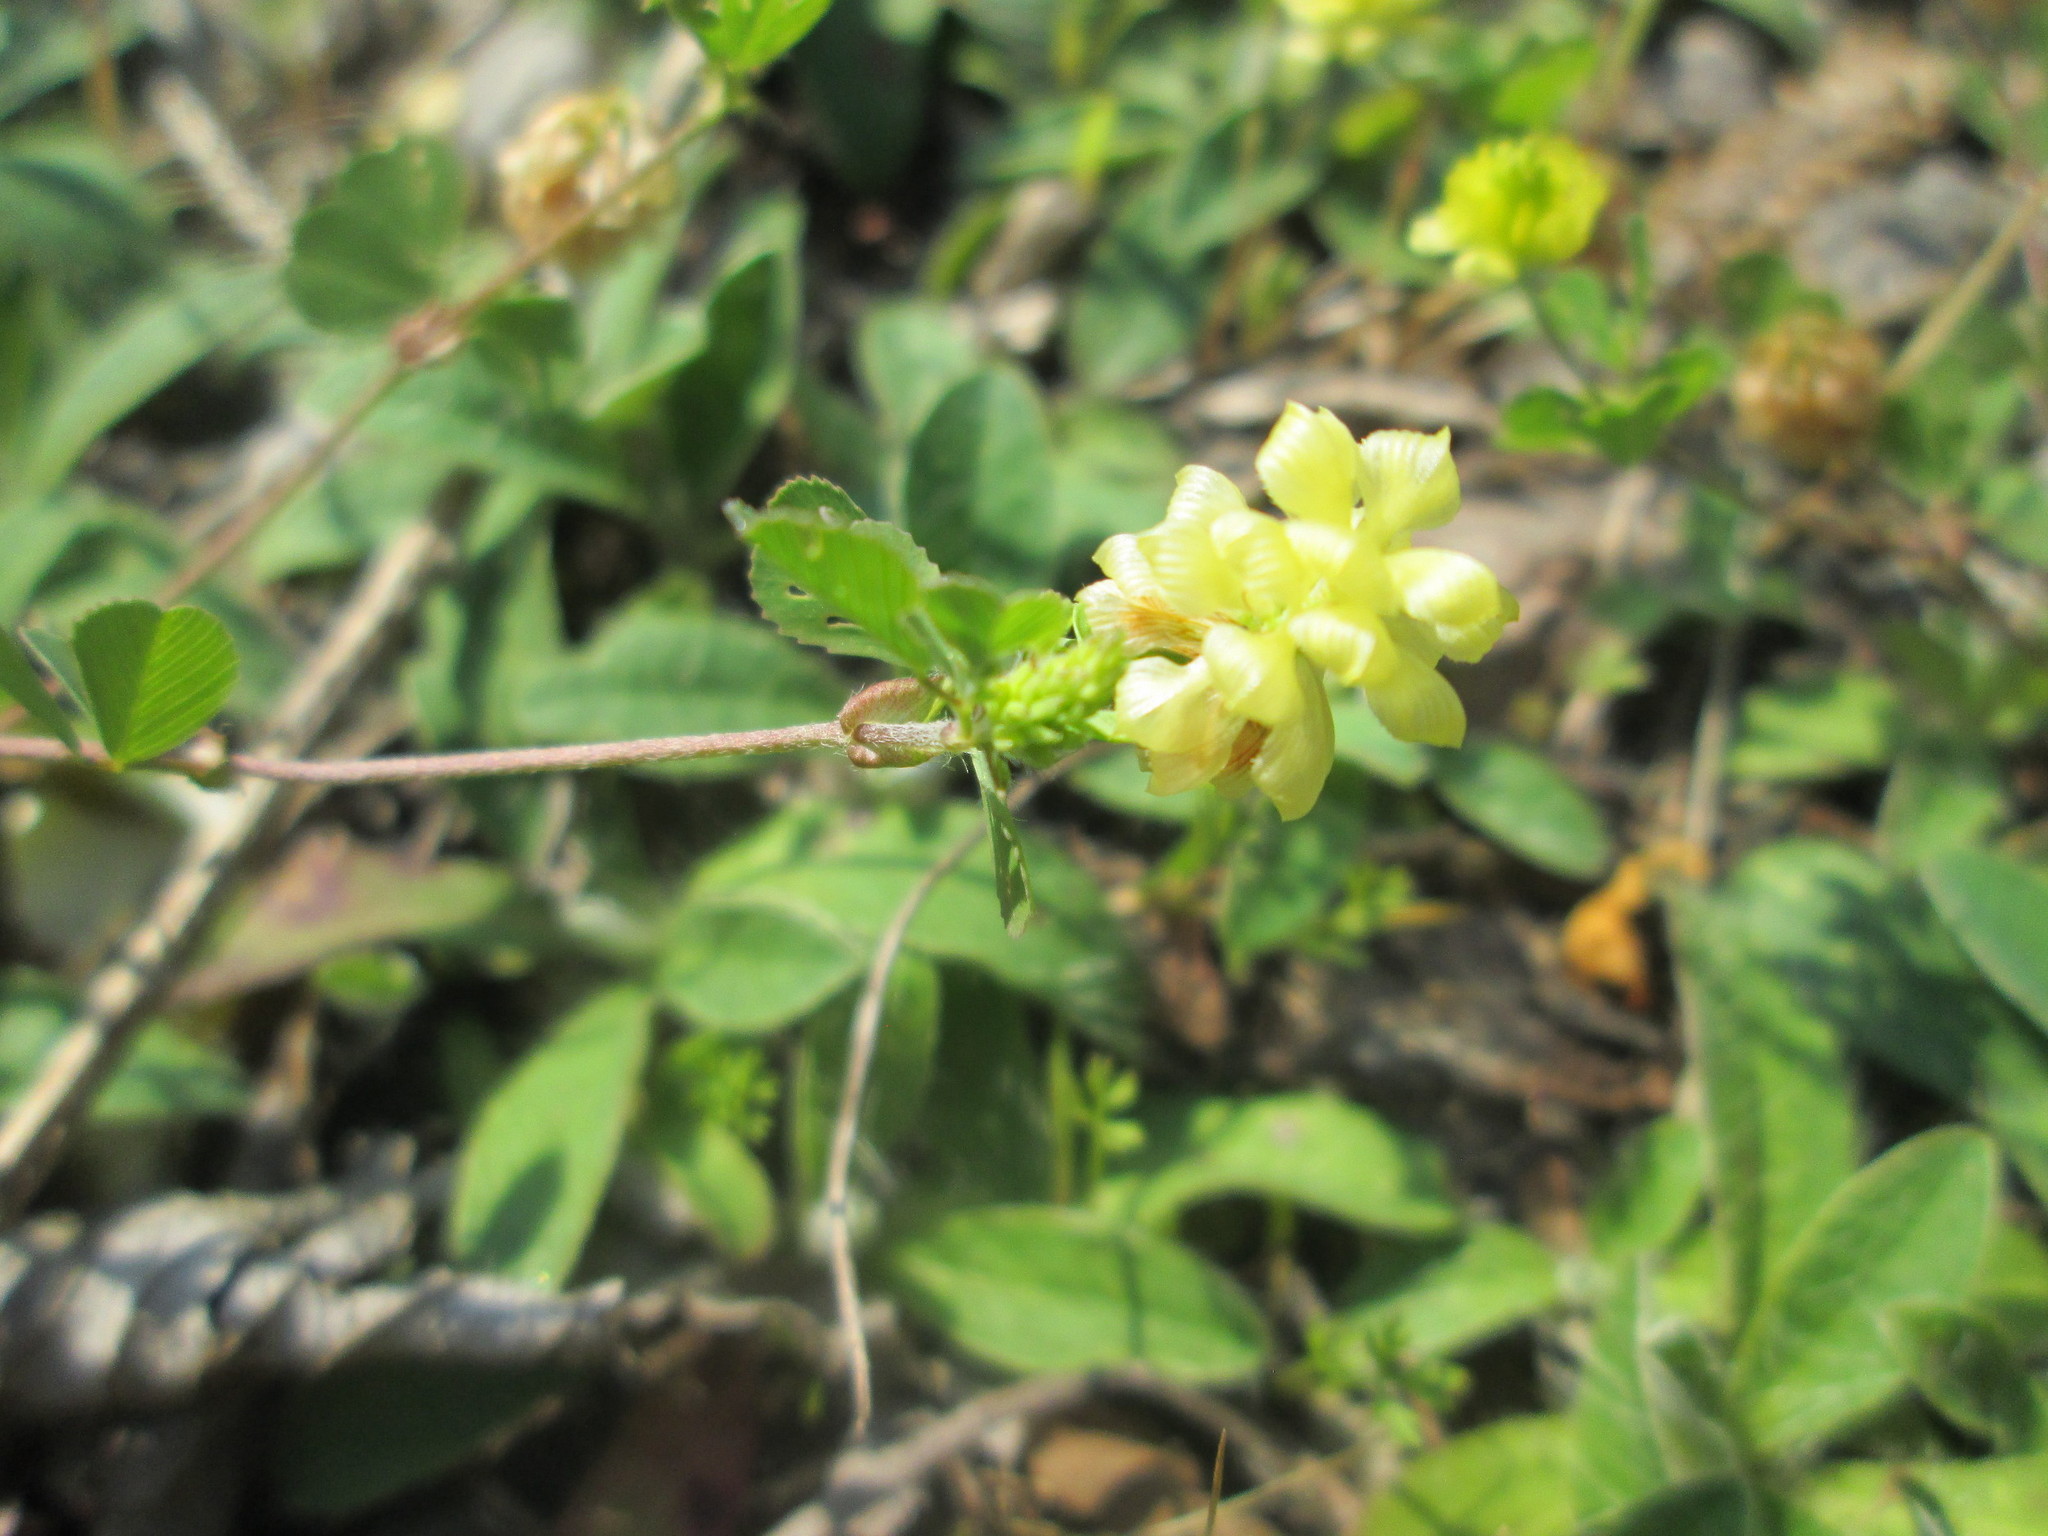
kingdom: Plantae
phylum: Tracheophyta
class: Magnoliopsida
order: Fabales
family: Fabaceae
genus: Trifolium
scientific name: Trifolium campestre
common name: Field clover
